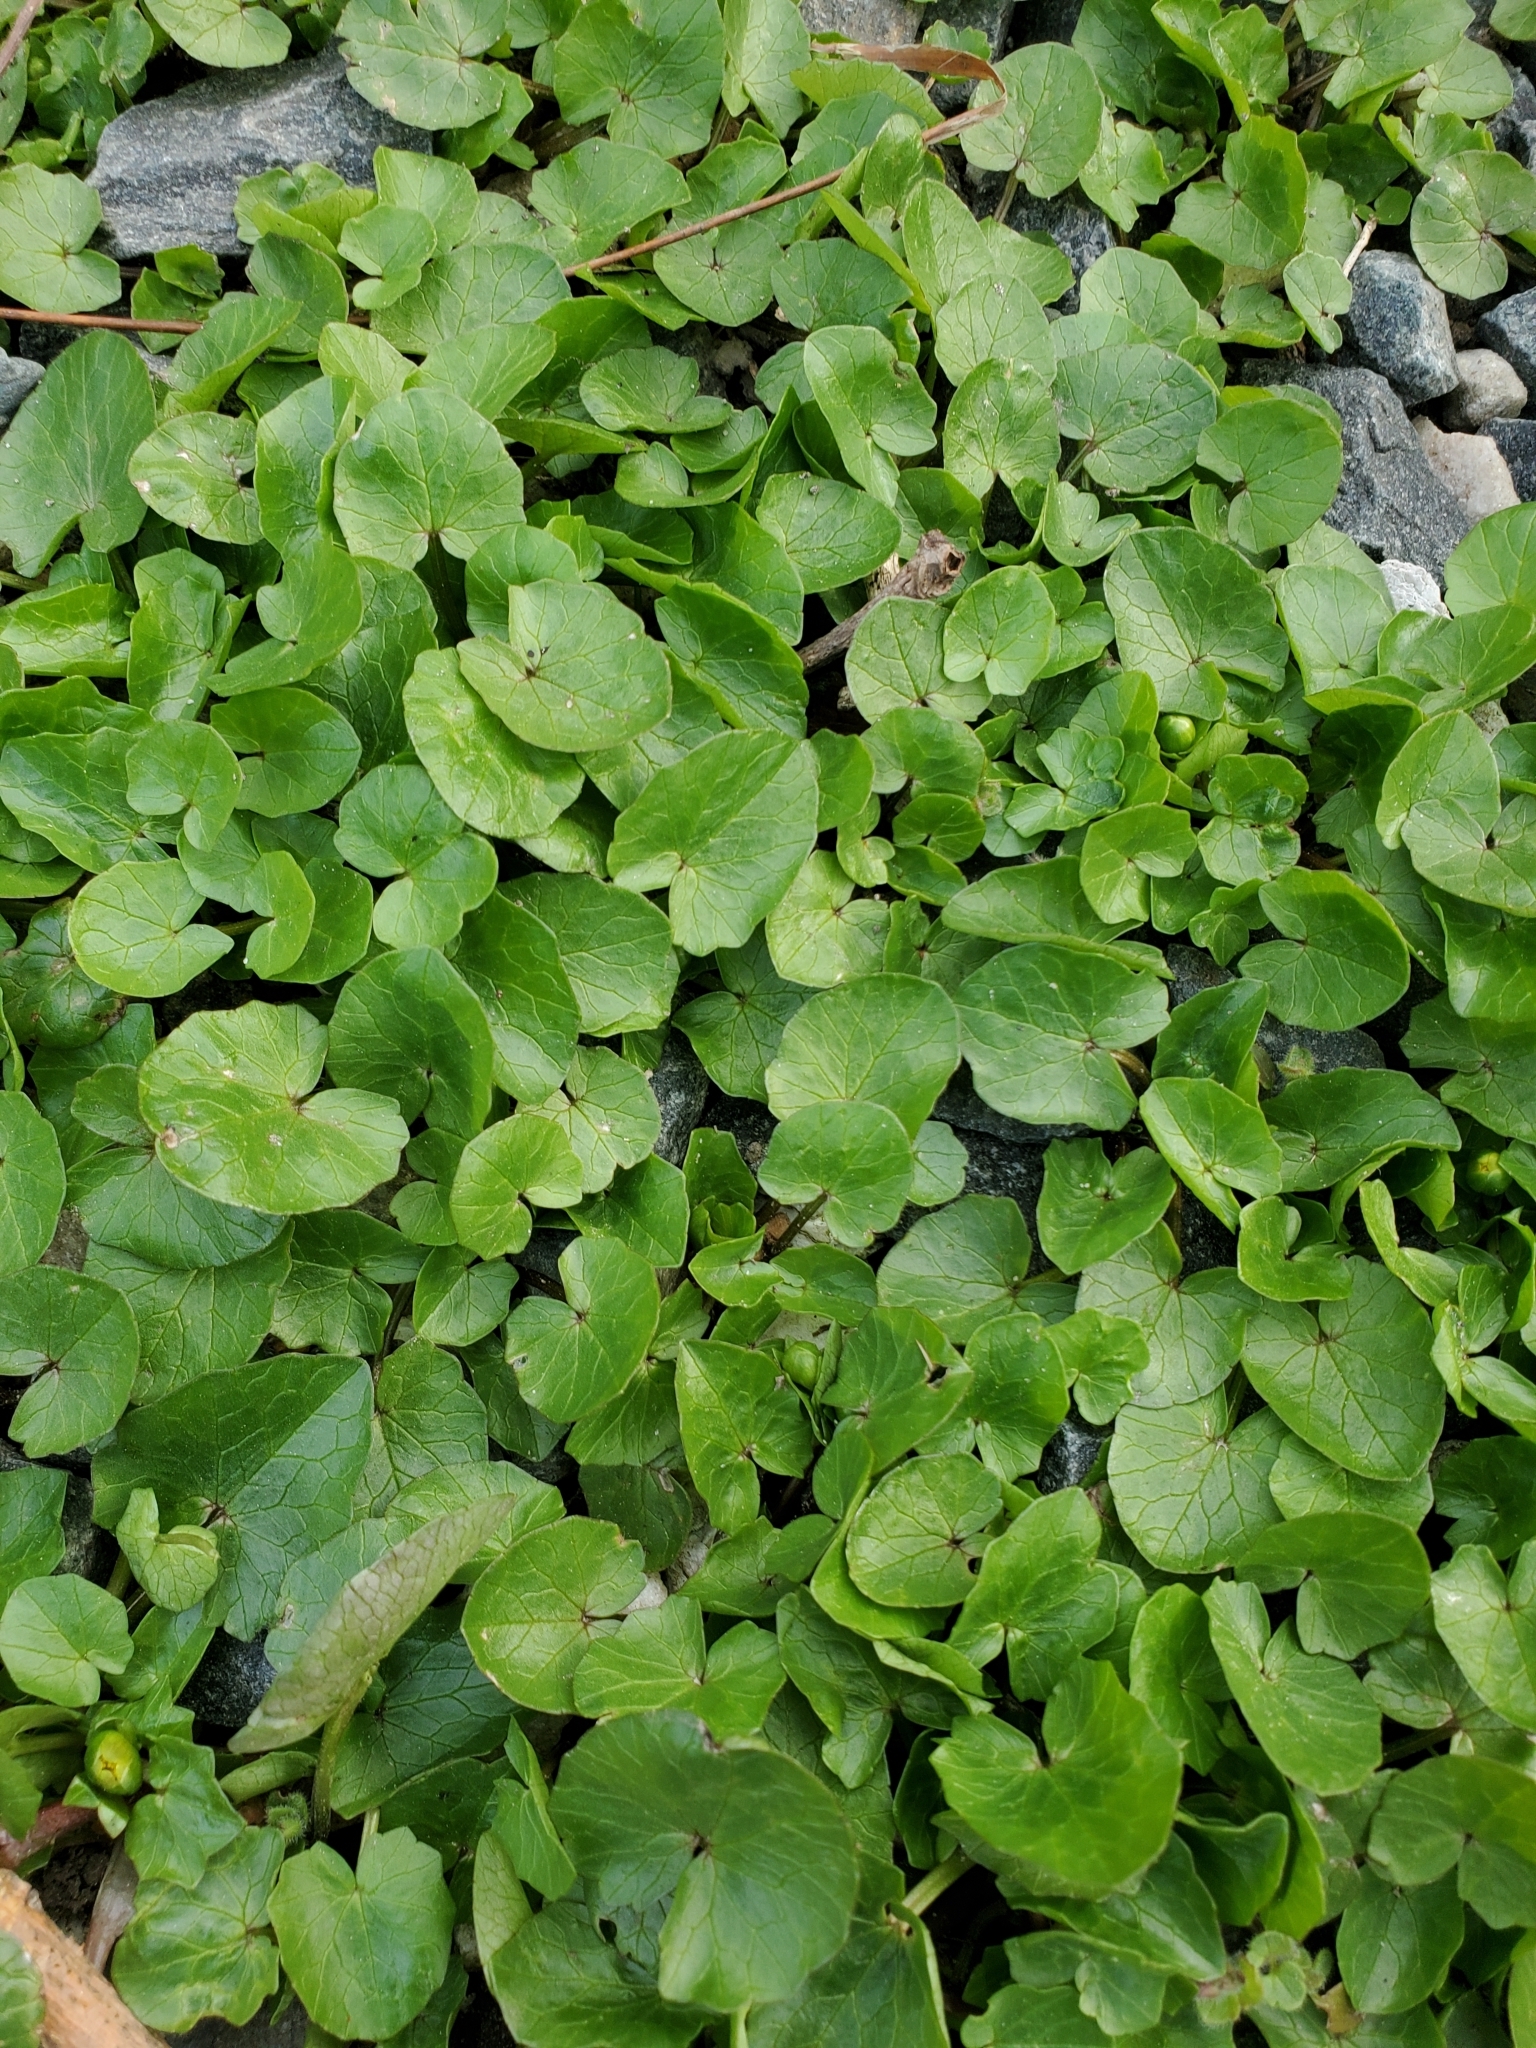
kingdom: Plantae
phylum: Tracheophyta
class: Magnoliopsida
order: Ranunculales
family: Ranunculaceae
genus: Ficaria
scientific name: Ficaria verna
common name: Lesser celandine
